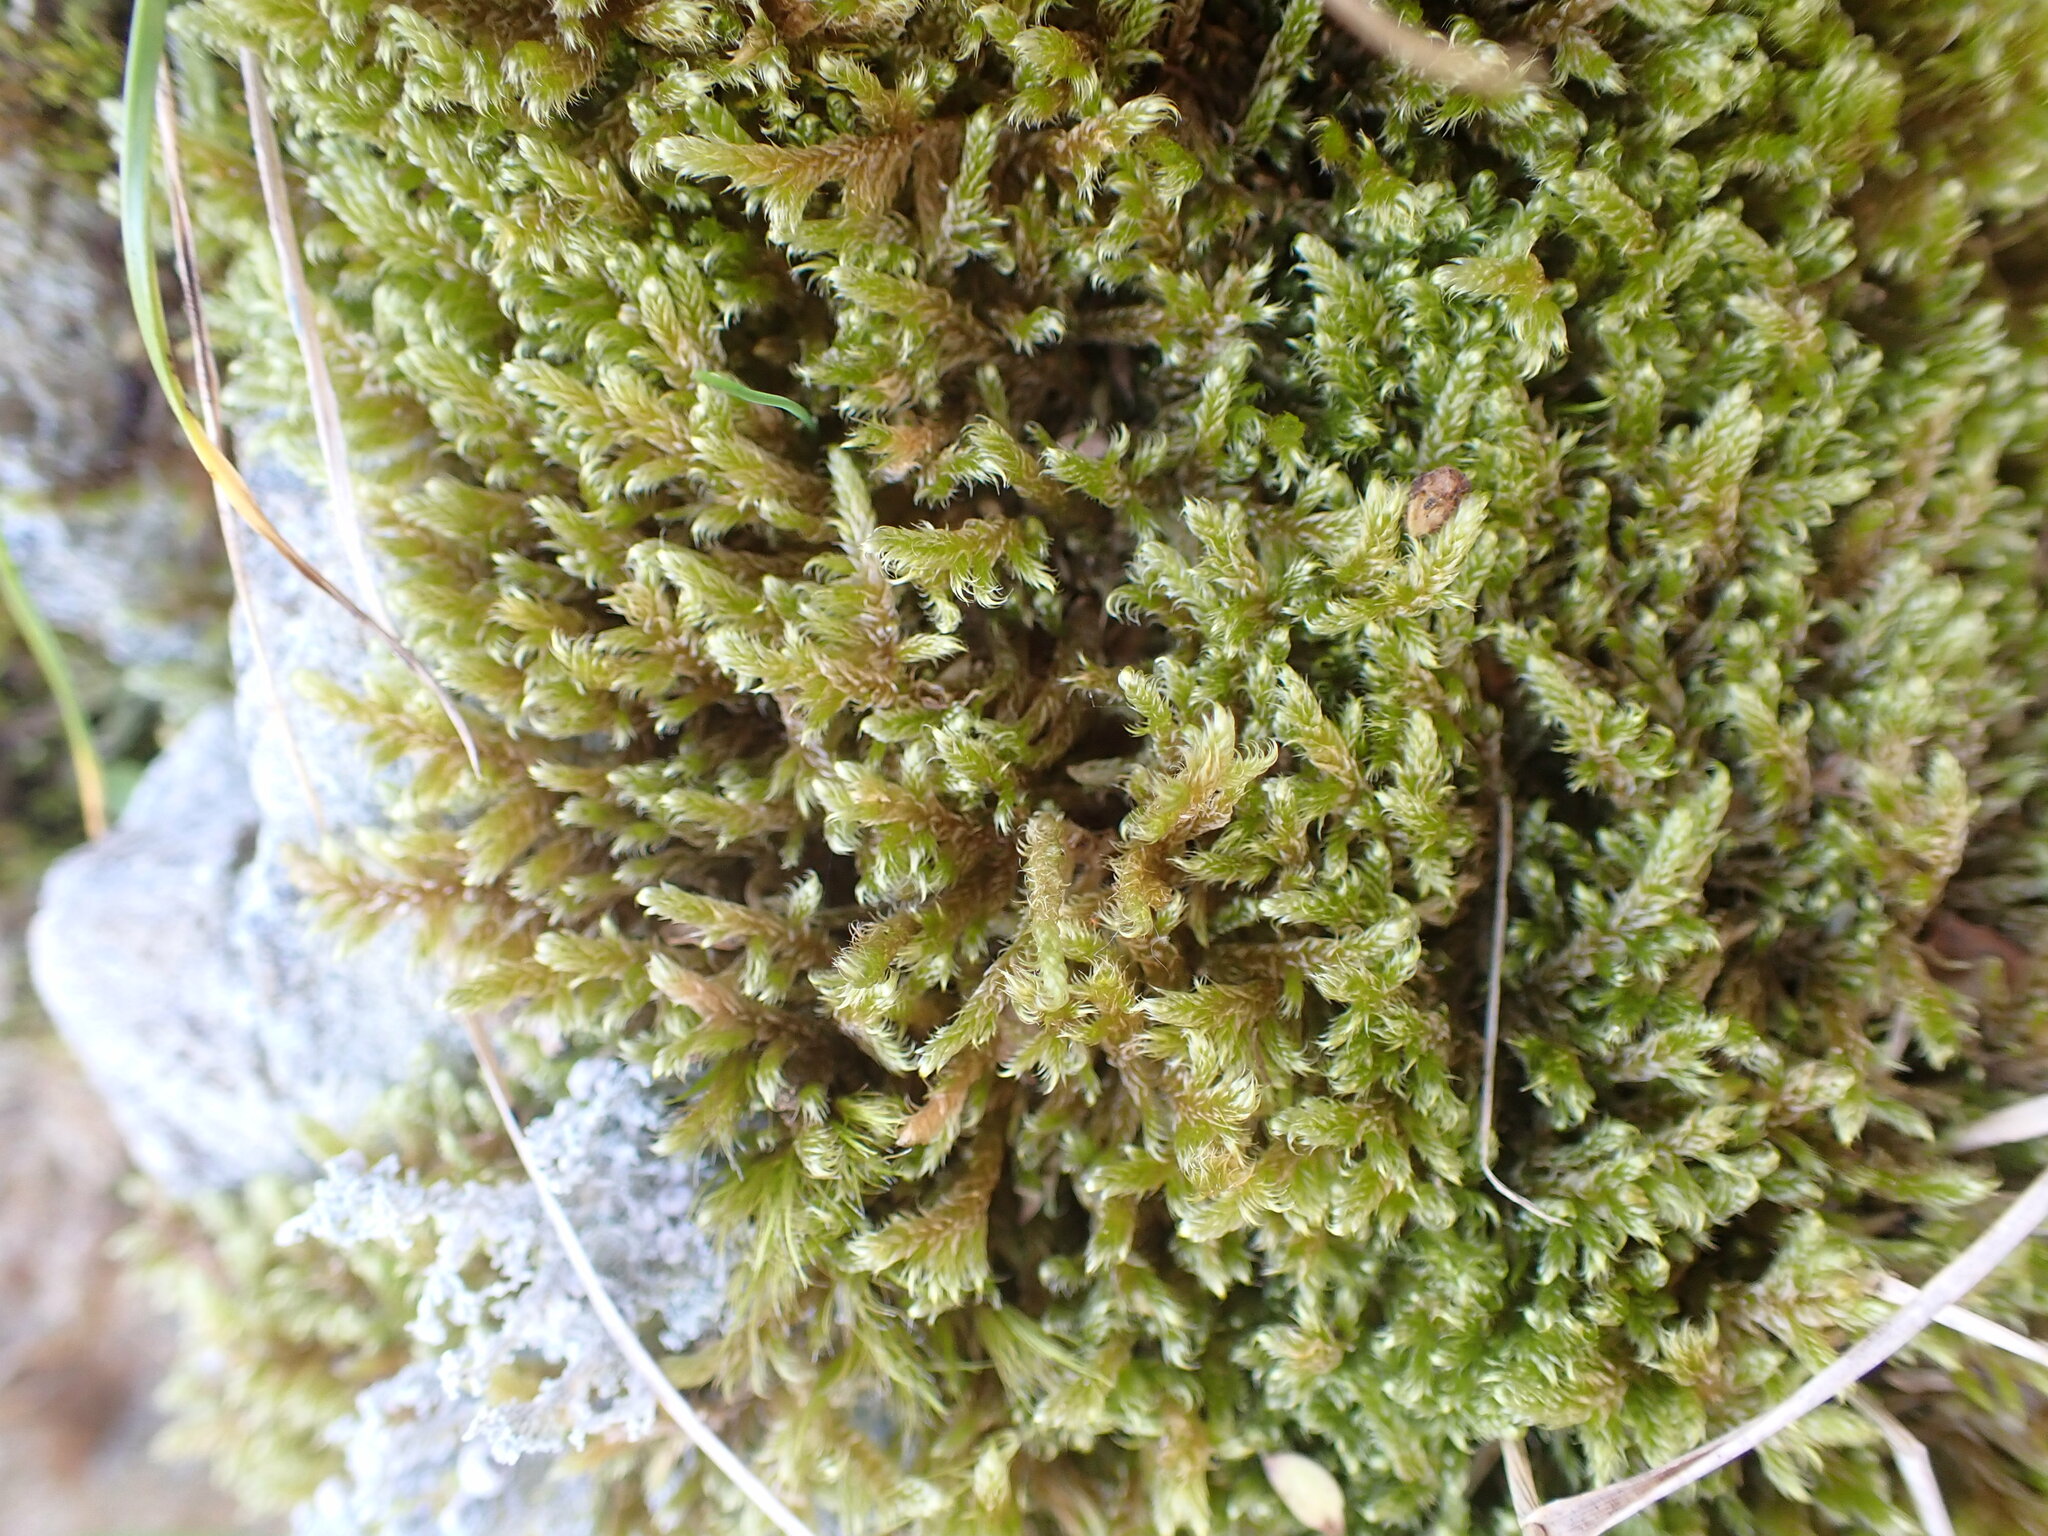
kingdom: Plantae
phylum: Bryophyta
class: Bryopsida
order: Hypnales
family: Hypnaceae
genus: Hypnum
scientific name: Hypnum cupressiforme
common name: Cypress-leaved plait-moss
